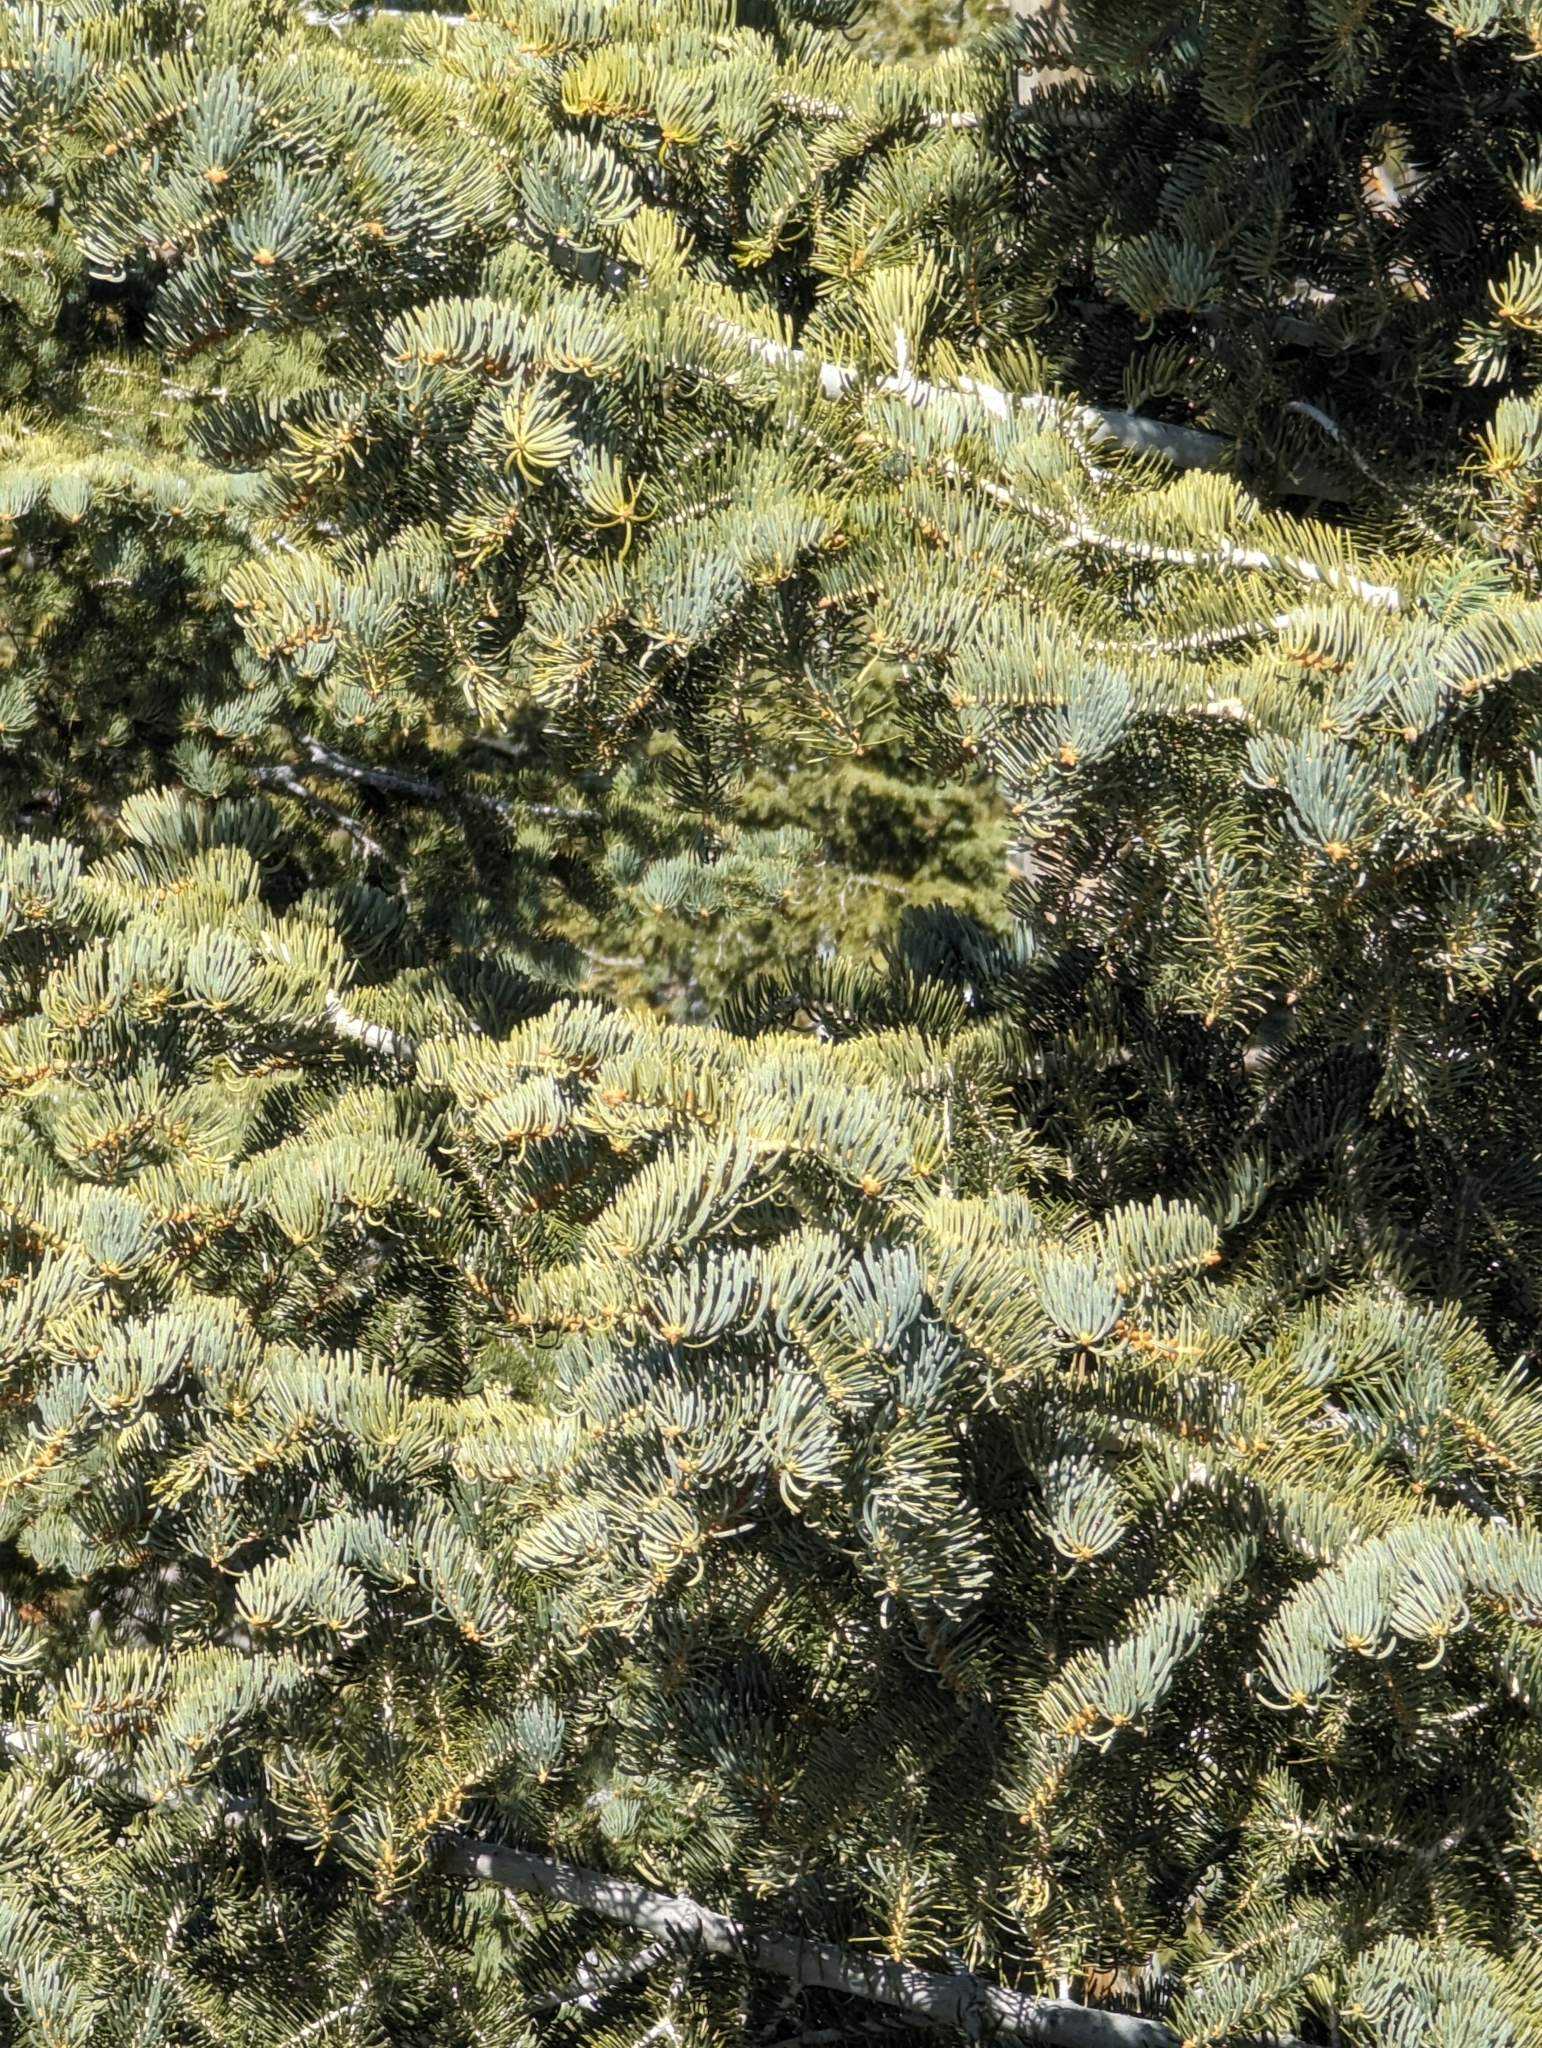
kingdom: Plantae
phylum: Tracheophyta
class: Pinopsida
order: Pinales
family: Pinaceae
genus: Abies
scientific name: Abies concolor
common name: Colorado fir
